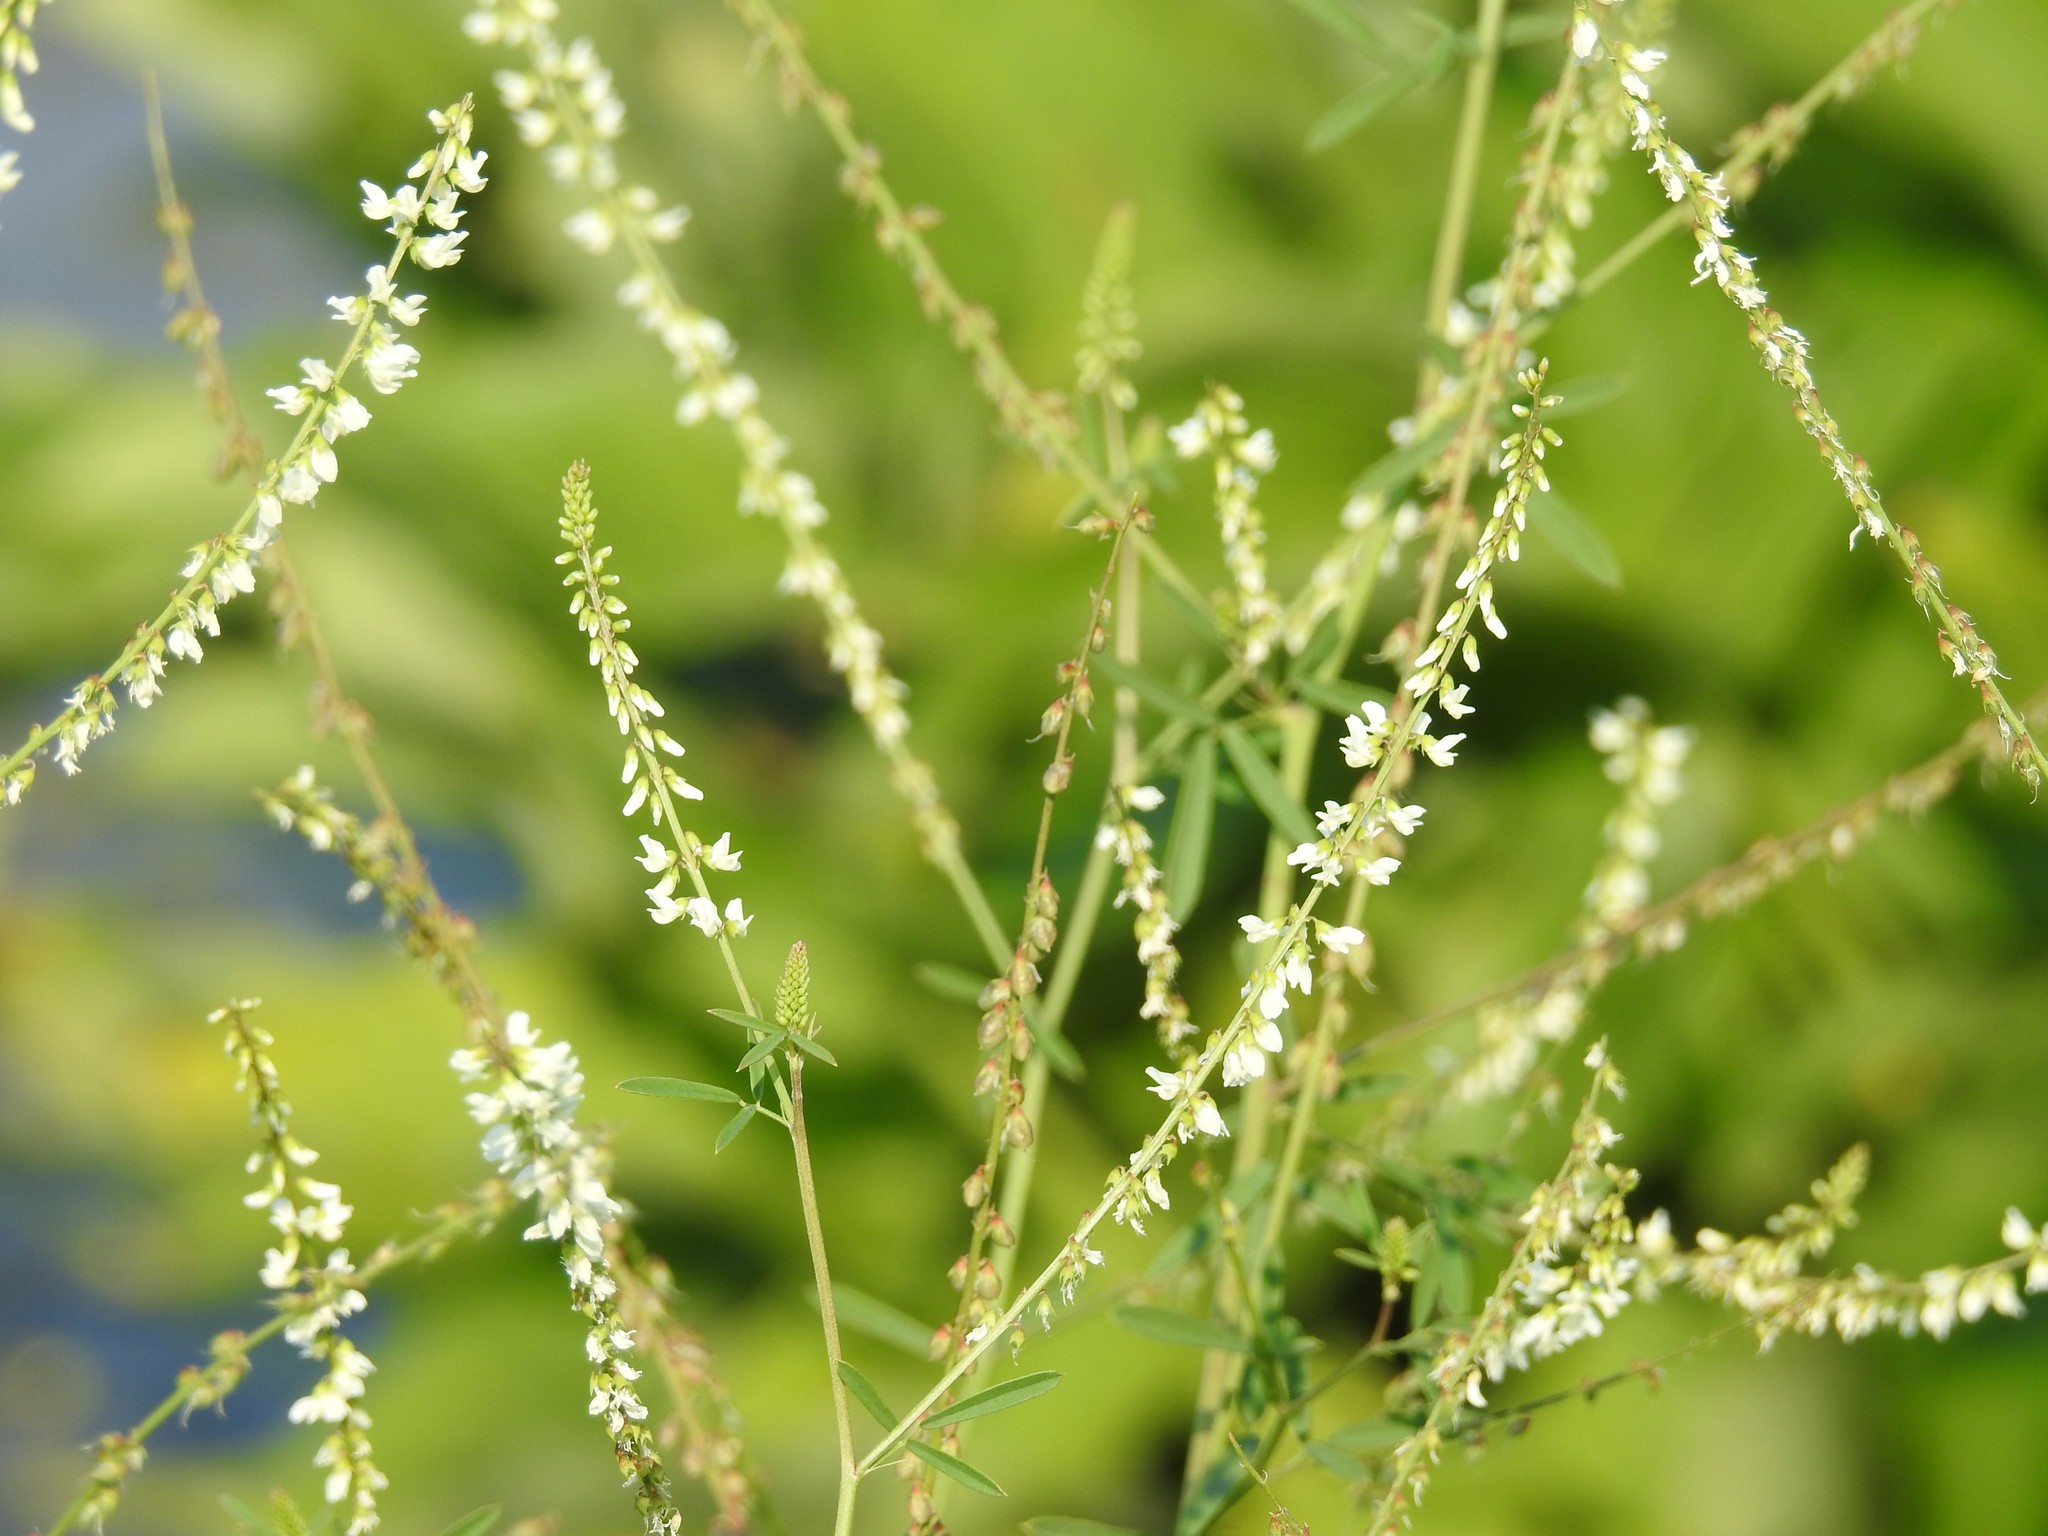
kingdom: Plantae
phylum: Tracheophyta
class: Magnoliopsida
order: Fabales
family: Fabaceae
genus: Melilotus
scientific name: Melilotus albus
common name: White melilot
